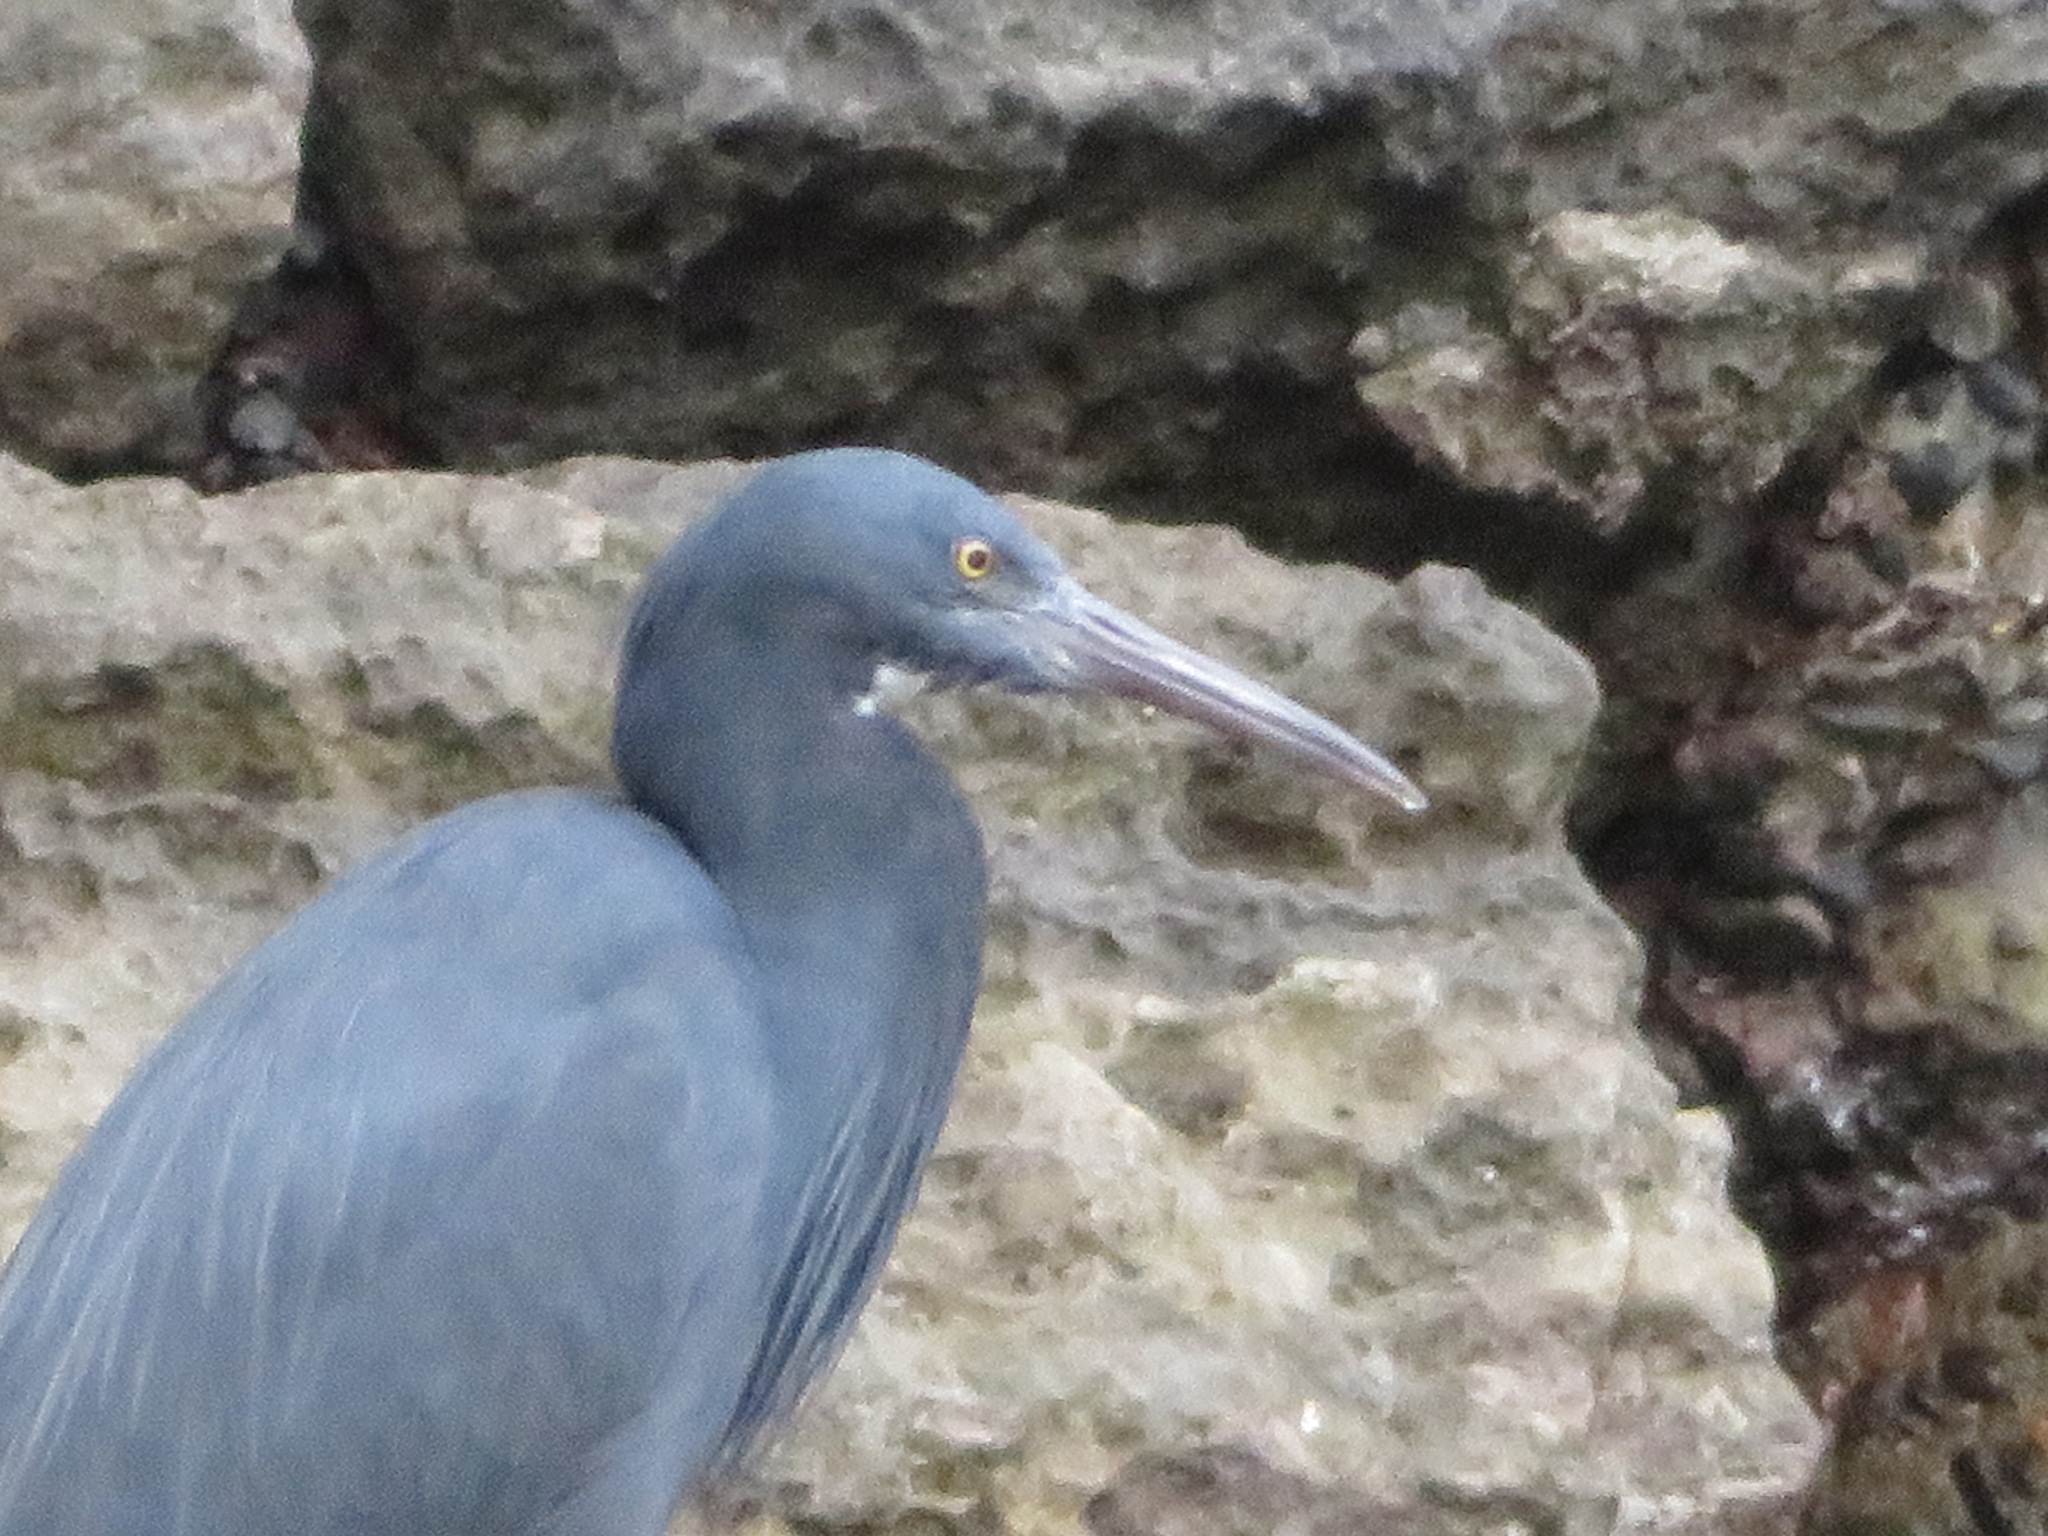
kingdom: Animalia
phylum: Chordata
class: Aves
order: Pelecaniformes
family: Ardeidae
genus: Egretta
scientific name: Egretta sacra
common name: Pacific reef heron
